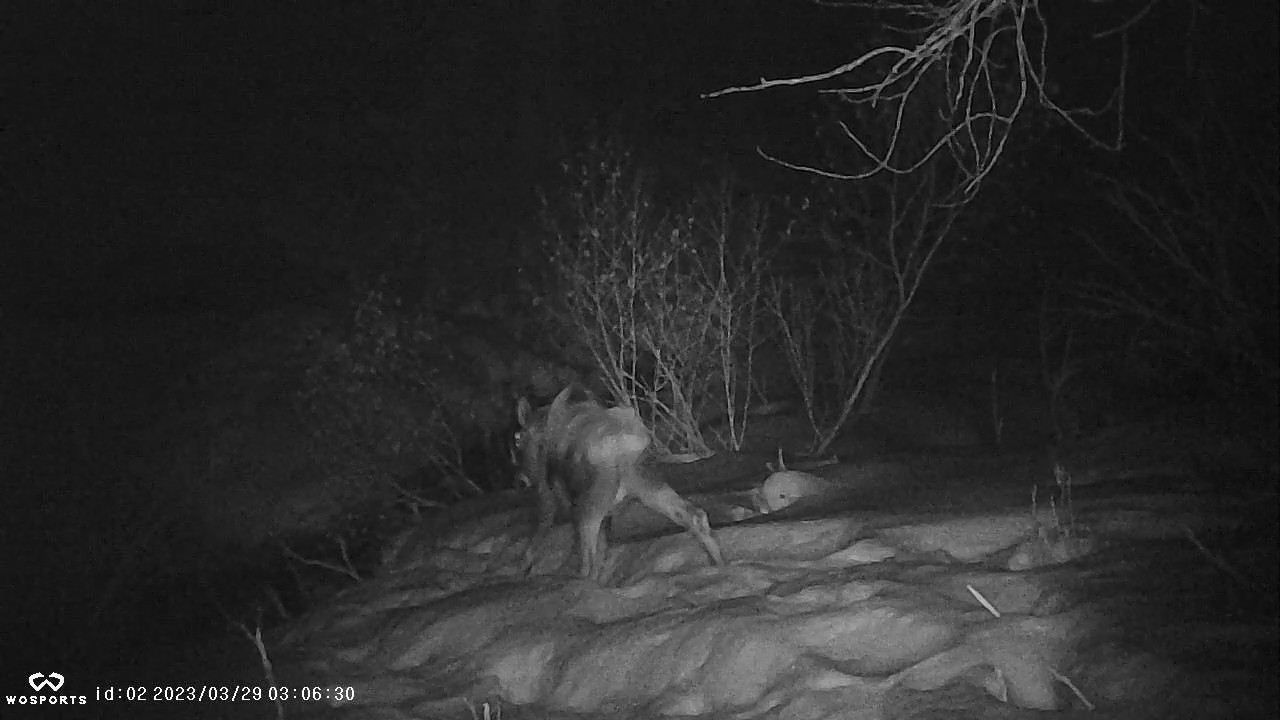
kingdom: Animalia
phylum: Chordata
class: Mammalia
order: Artiodactyla
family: Cervidae
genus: Alces
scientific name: Alces alces
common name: Moose
